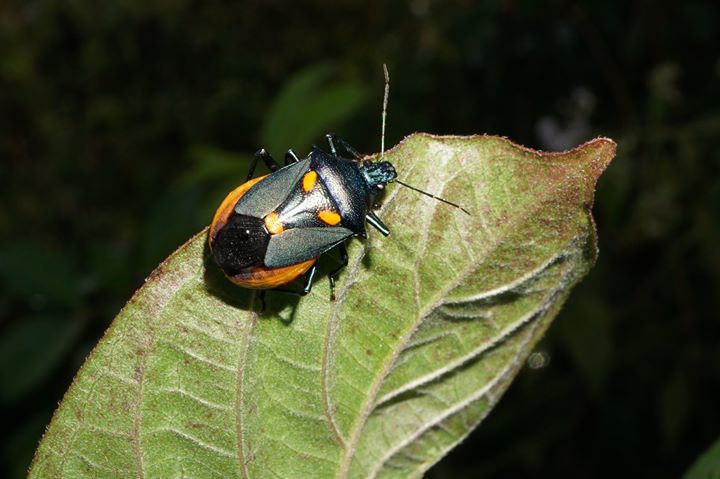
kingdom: Animalia
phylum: Arthropoda
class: Insecta
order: Hemiptera
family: Pentatomidae
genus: Euthyrhynchus
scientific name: Euthyrhynchus floridanus
